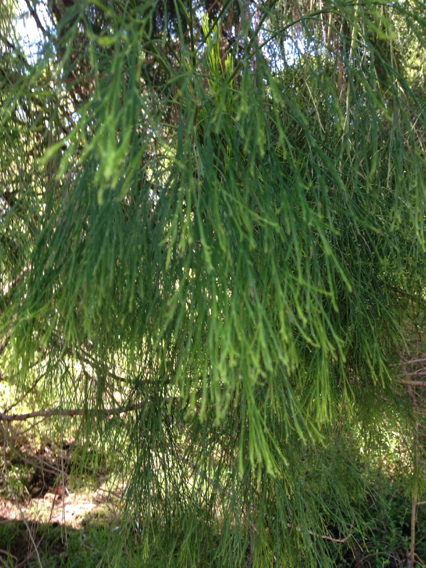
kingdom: Plantae
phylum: Tracheophyta
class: Magnoliopsida
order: Santalales
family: Santalaceae
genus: Exocarpos
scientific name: Exocarpos cupressiformis
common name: Cherry ballart
